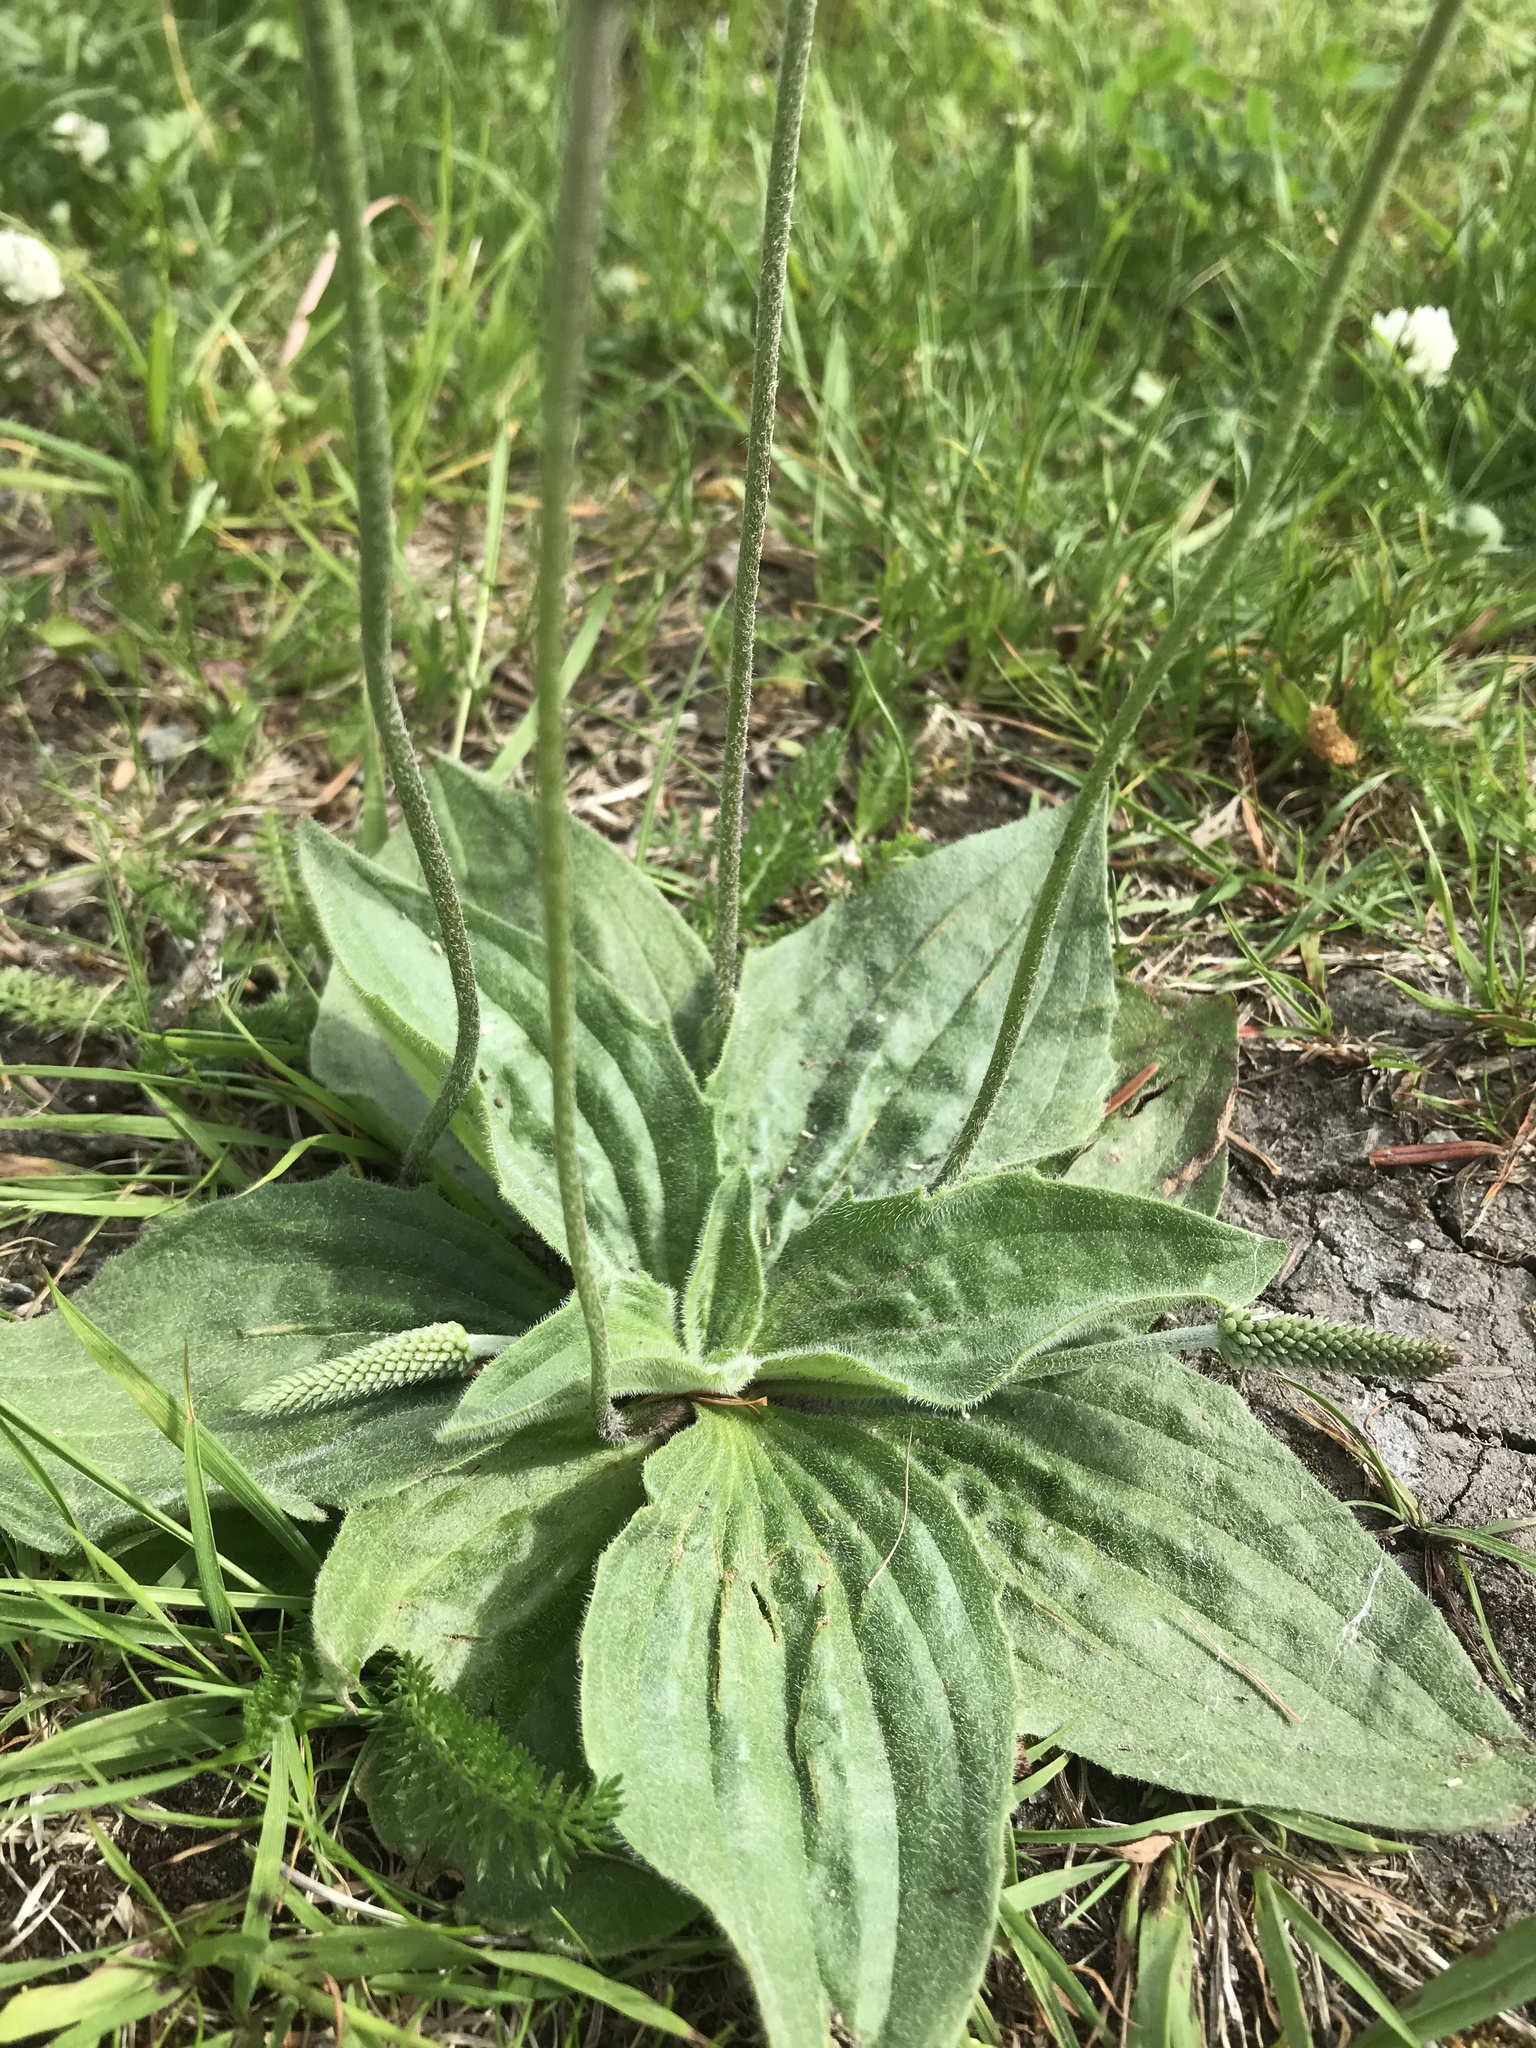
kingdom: Plantae
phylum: Tracheophyta
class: Magnoliopsida
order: Lamiales
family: Plantaginaceae
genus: Plantago
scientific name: Plantago media
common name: Hoary plantain
